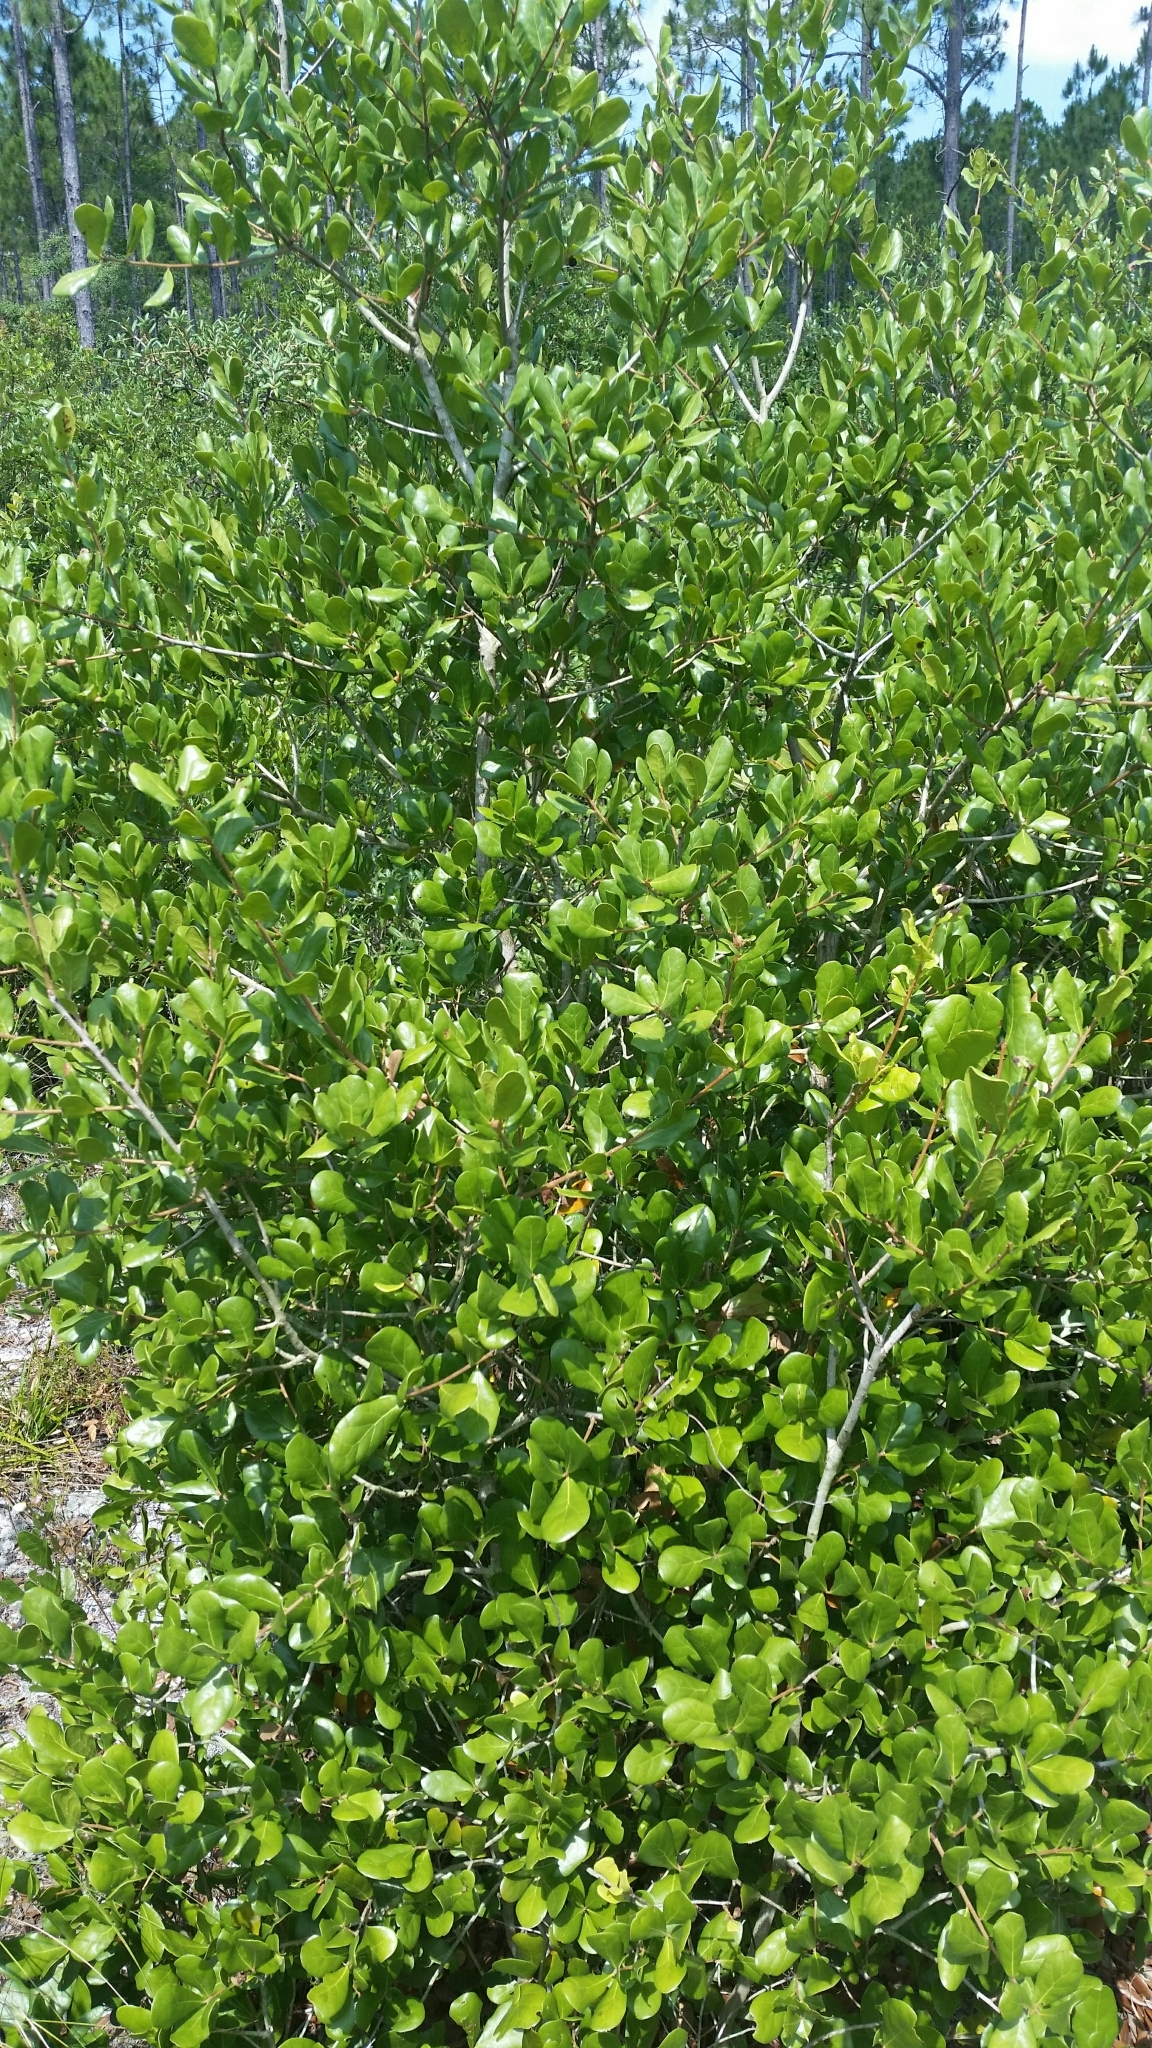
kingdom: Plantae
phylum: Tracheophyta
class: Magnoliopsida
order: Fagales
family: Fagaceae
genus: Quercus
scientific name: Quercus myrtifolia
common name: Myrtle oak
